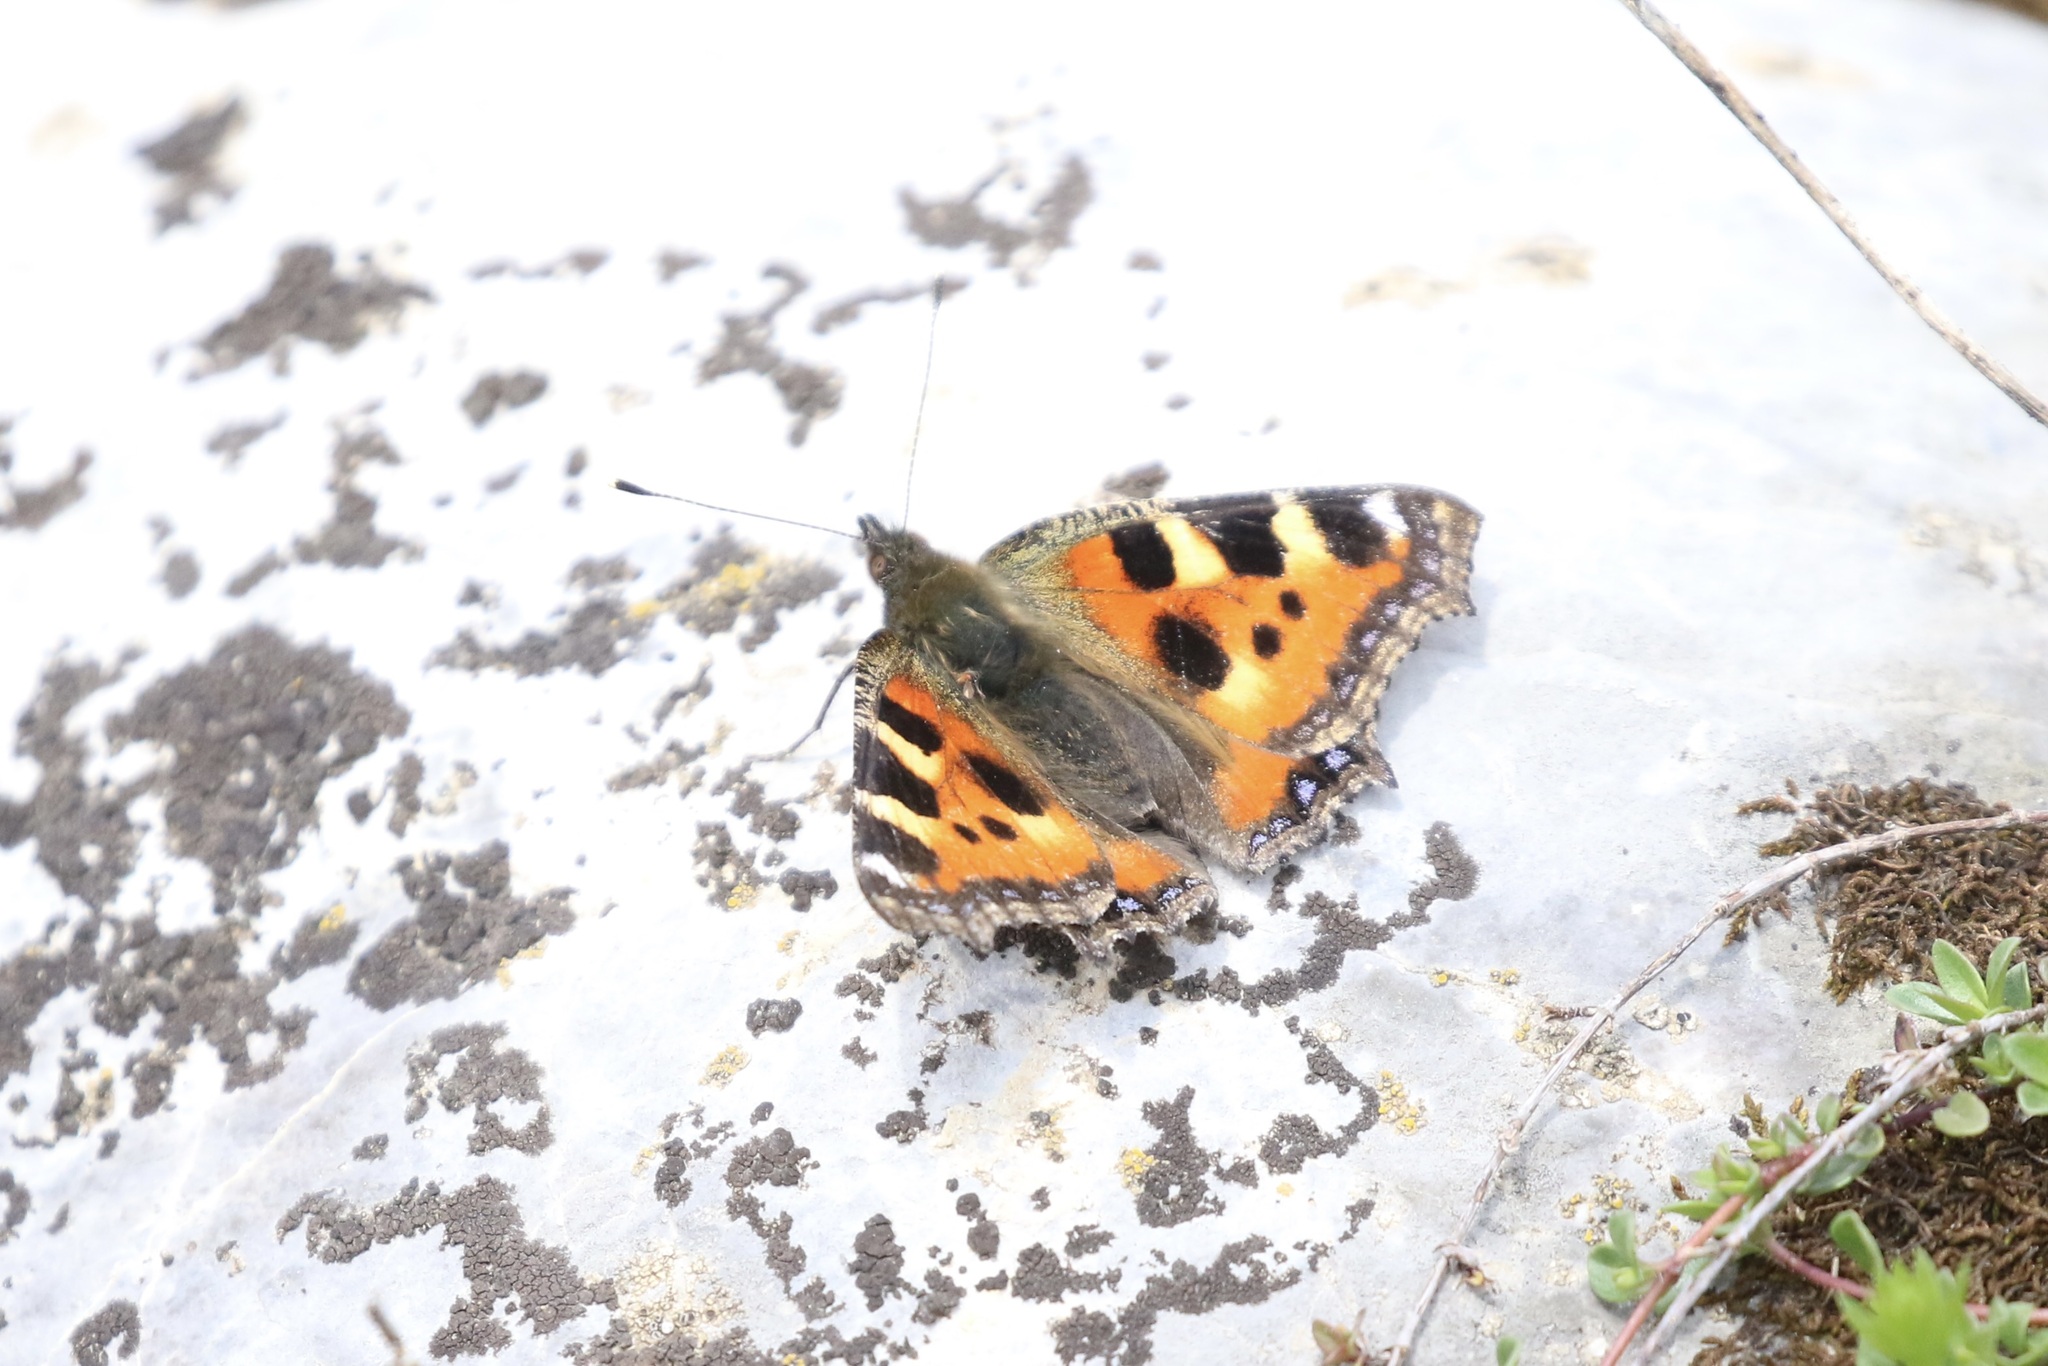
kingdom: Animalia
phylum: Arthropoda
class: Insecta
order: Lepidoptera
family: Nymphalidae
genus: Aglais
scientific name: Aglais urticae
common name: Small tortoiseshell
